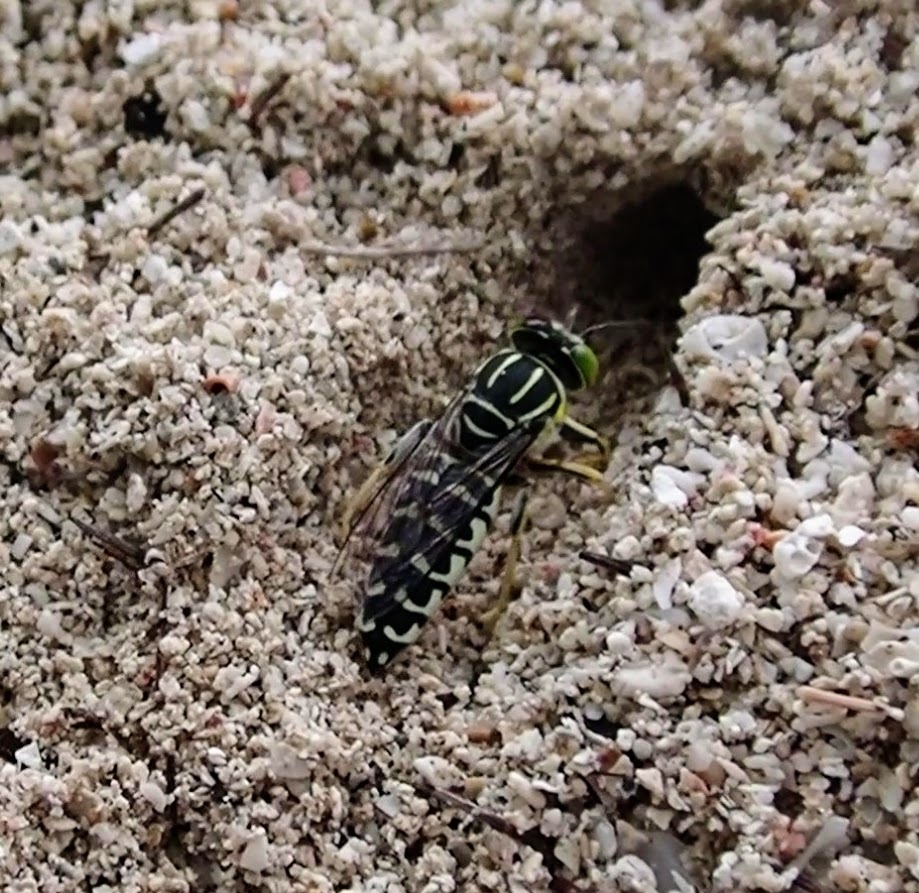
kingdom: Animalia
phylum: Arthropoda
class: Insecta
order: Hymenoptera
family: Crabronidae
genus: Stictia
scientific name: Stictia signata
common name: Sand wasp
